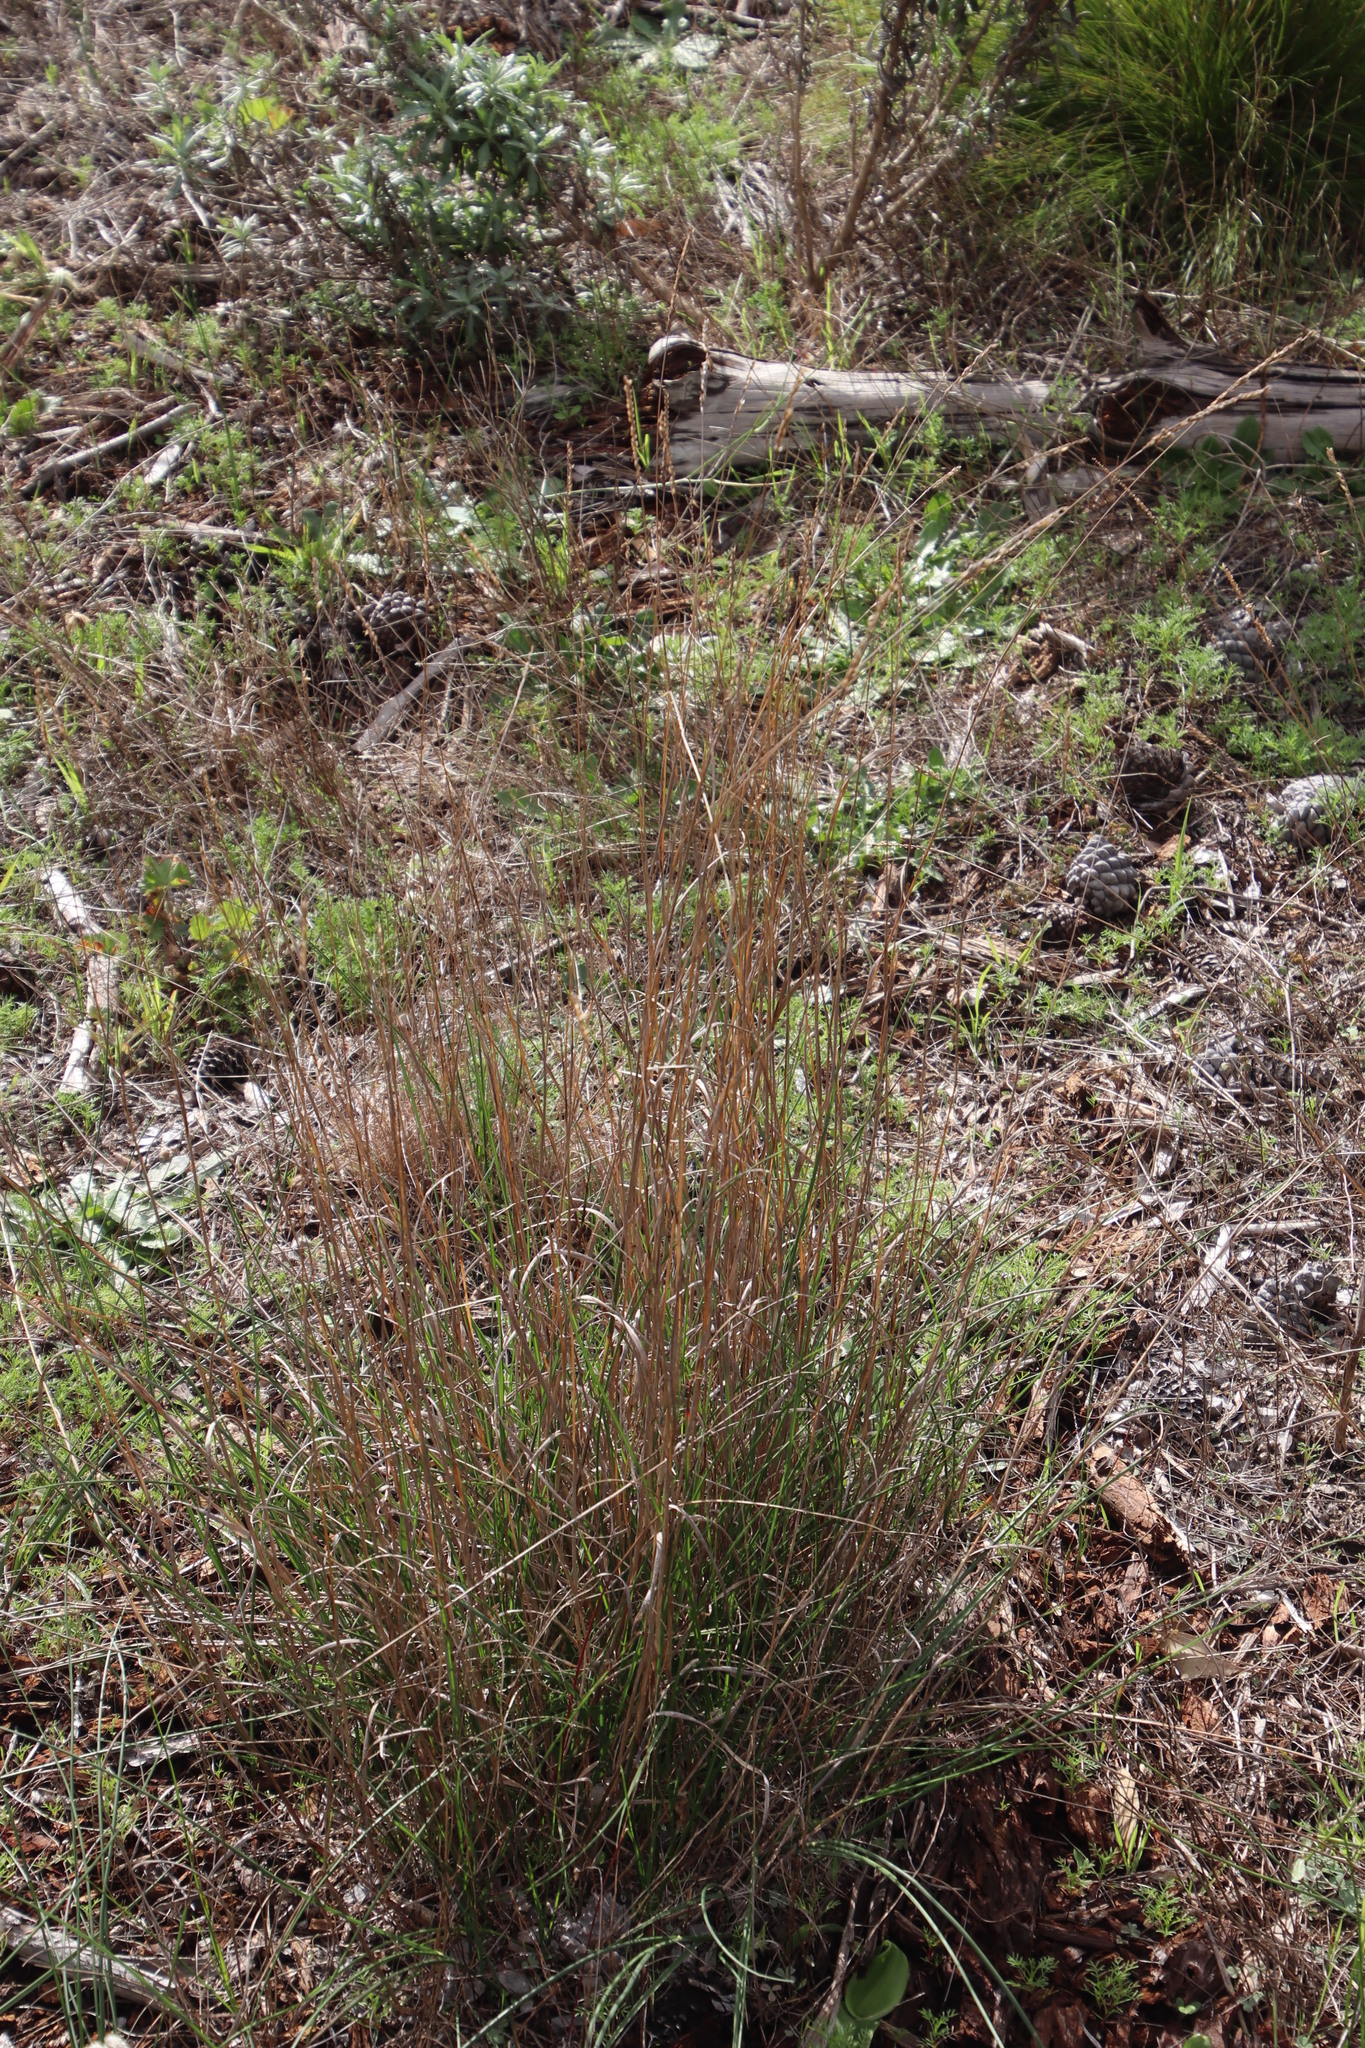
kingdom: Plantae
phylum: Tracheophyta
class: Liliopsida
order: Poales
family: Poaceae
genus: Tribolium
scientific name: Tribolium uniolae
